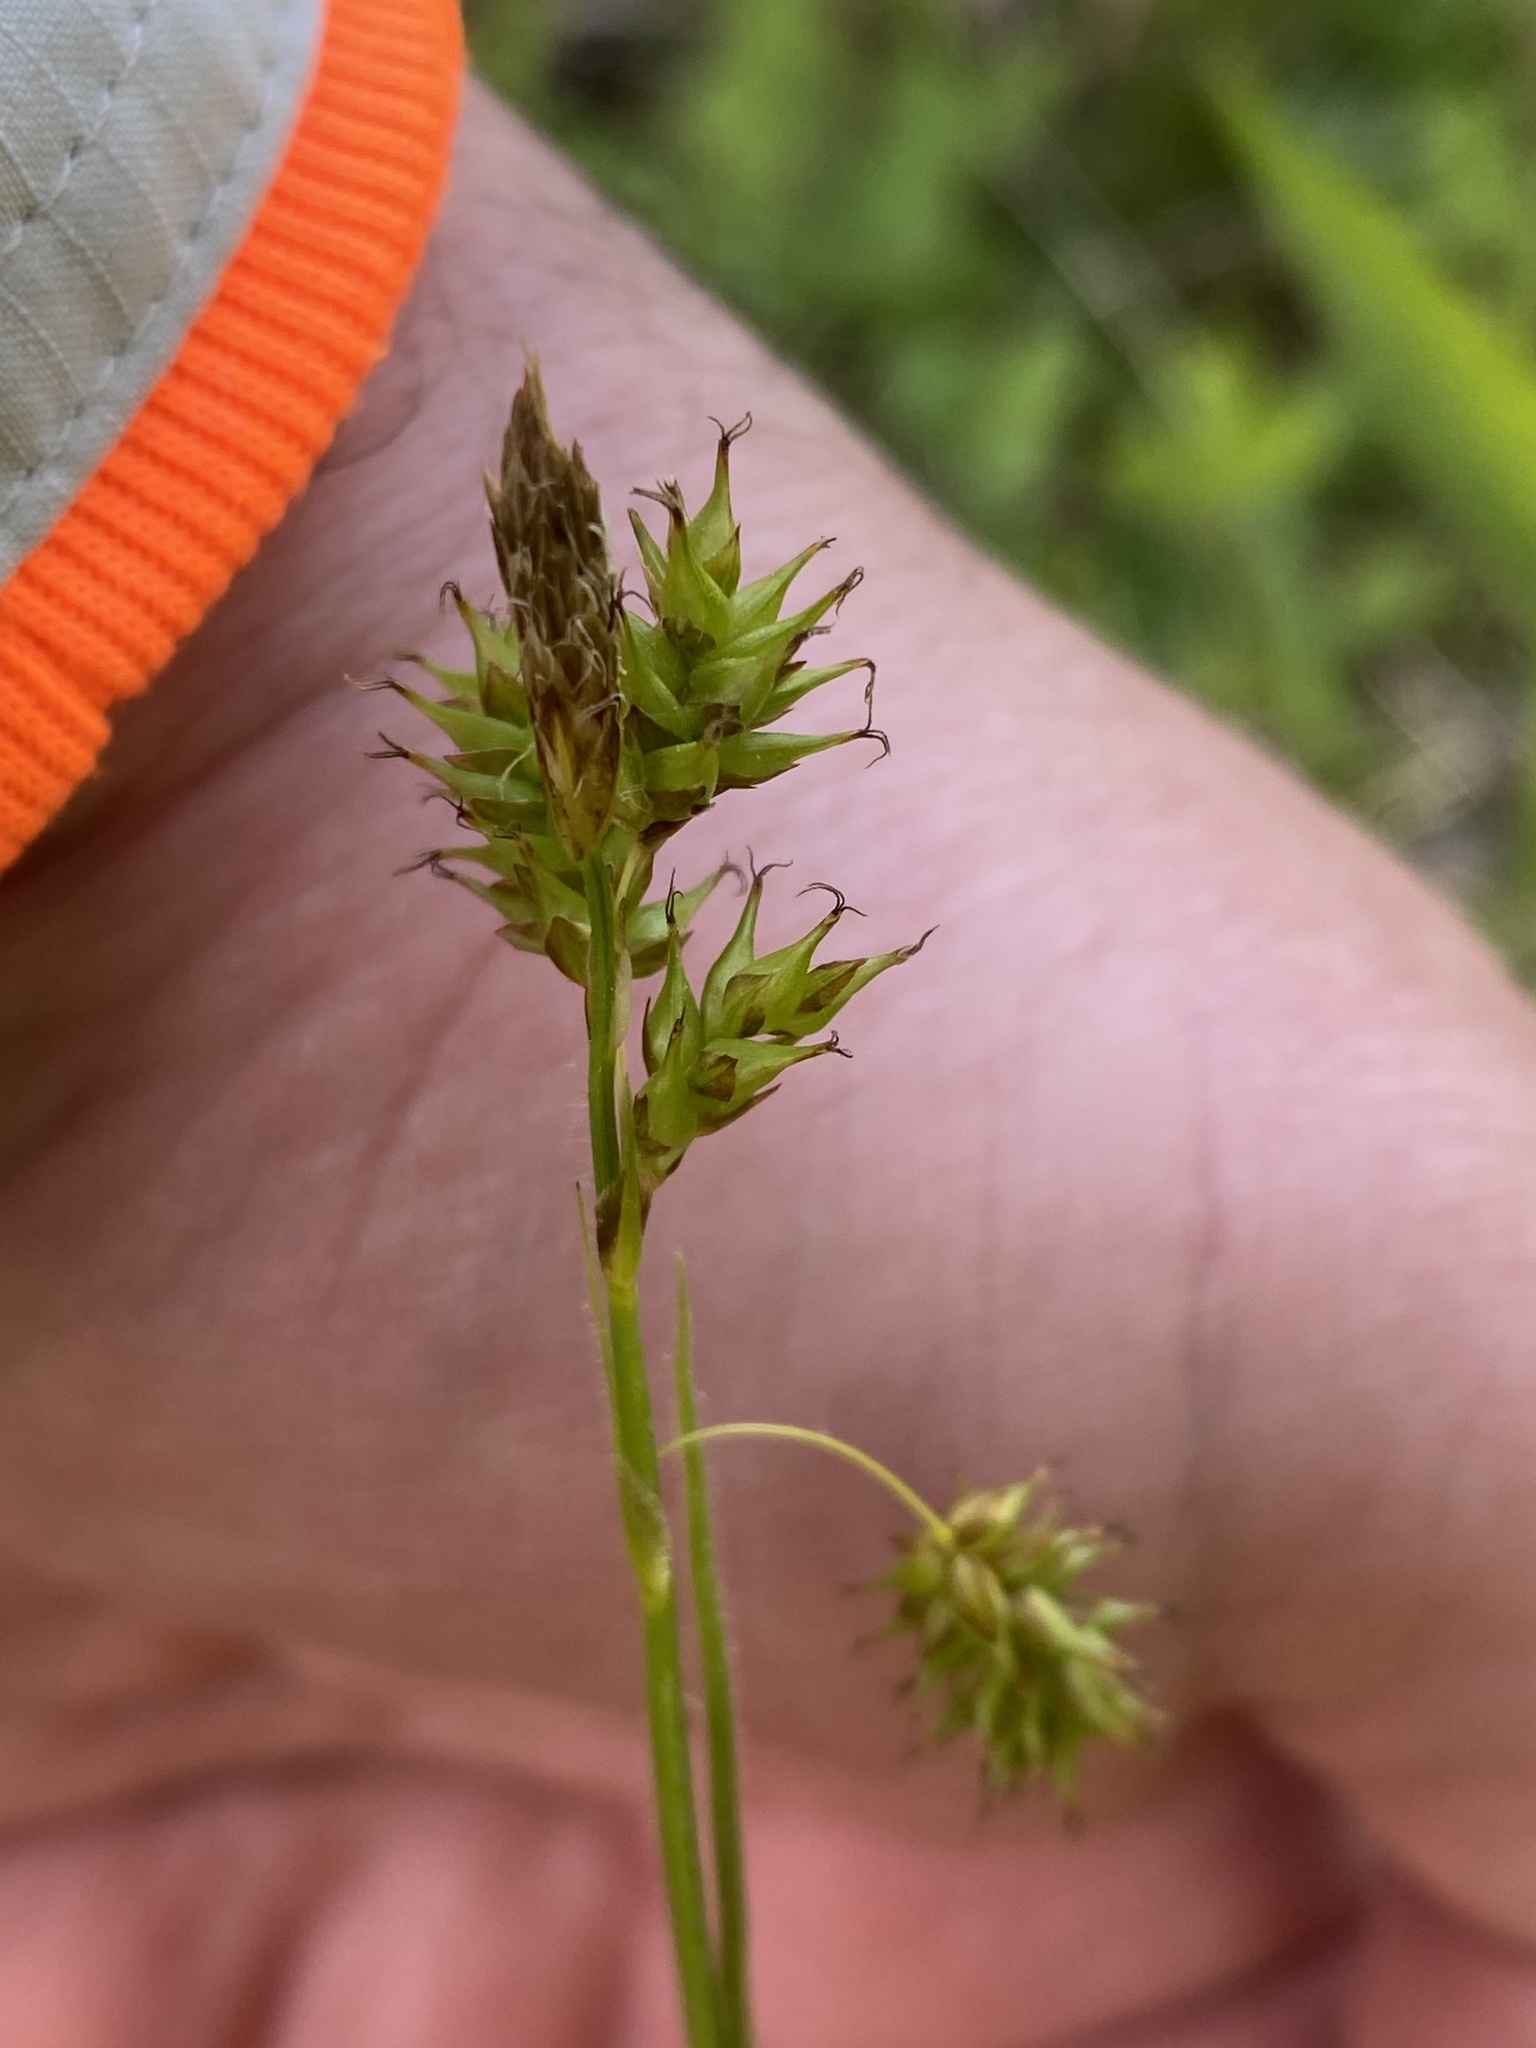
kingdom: Plantae
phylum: Tracheophyta
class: Liliopsida
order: Poales
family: Cyperaceae
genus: Carex
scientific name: Carex castanea
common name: Chestnut sedge
